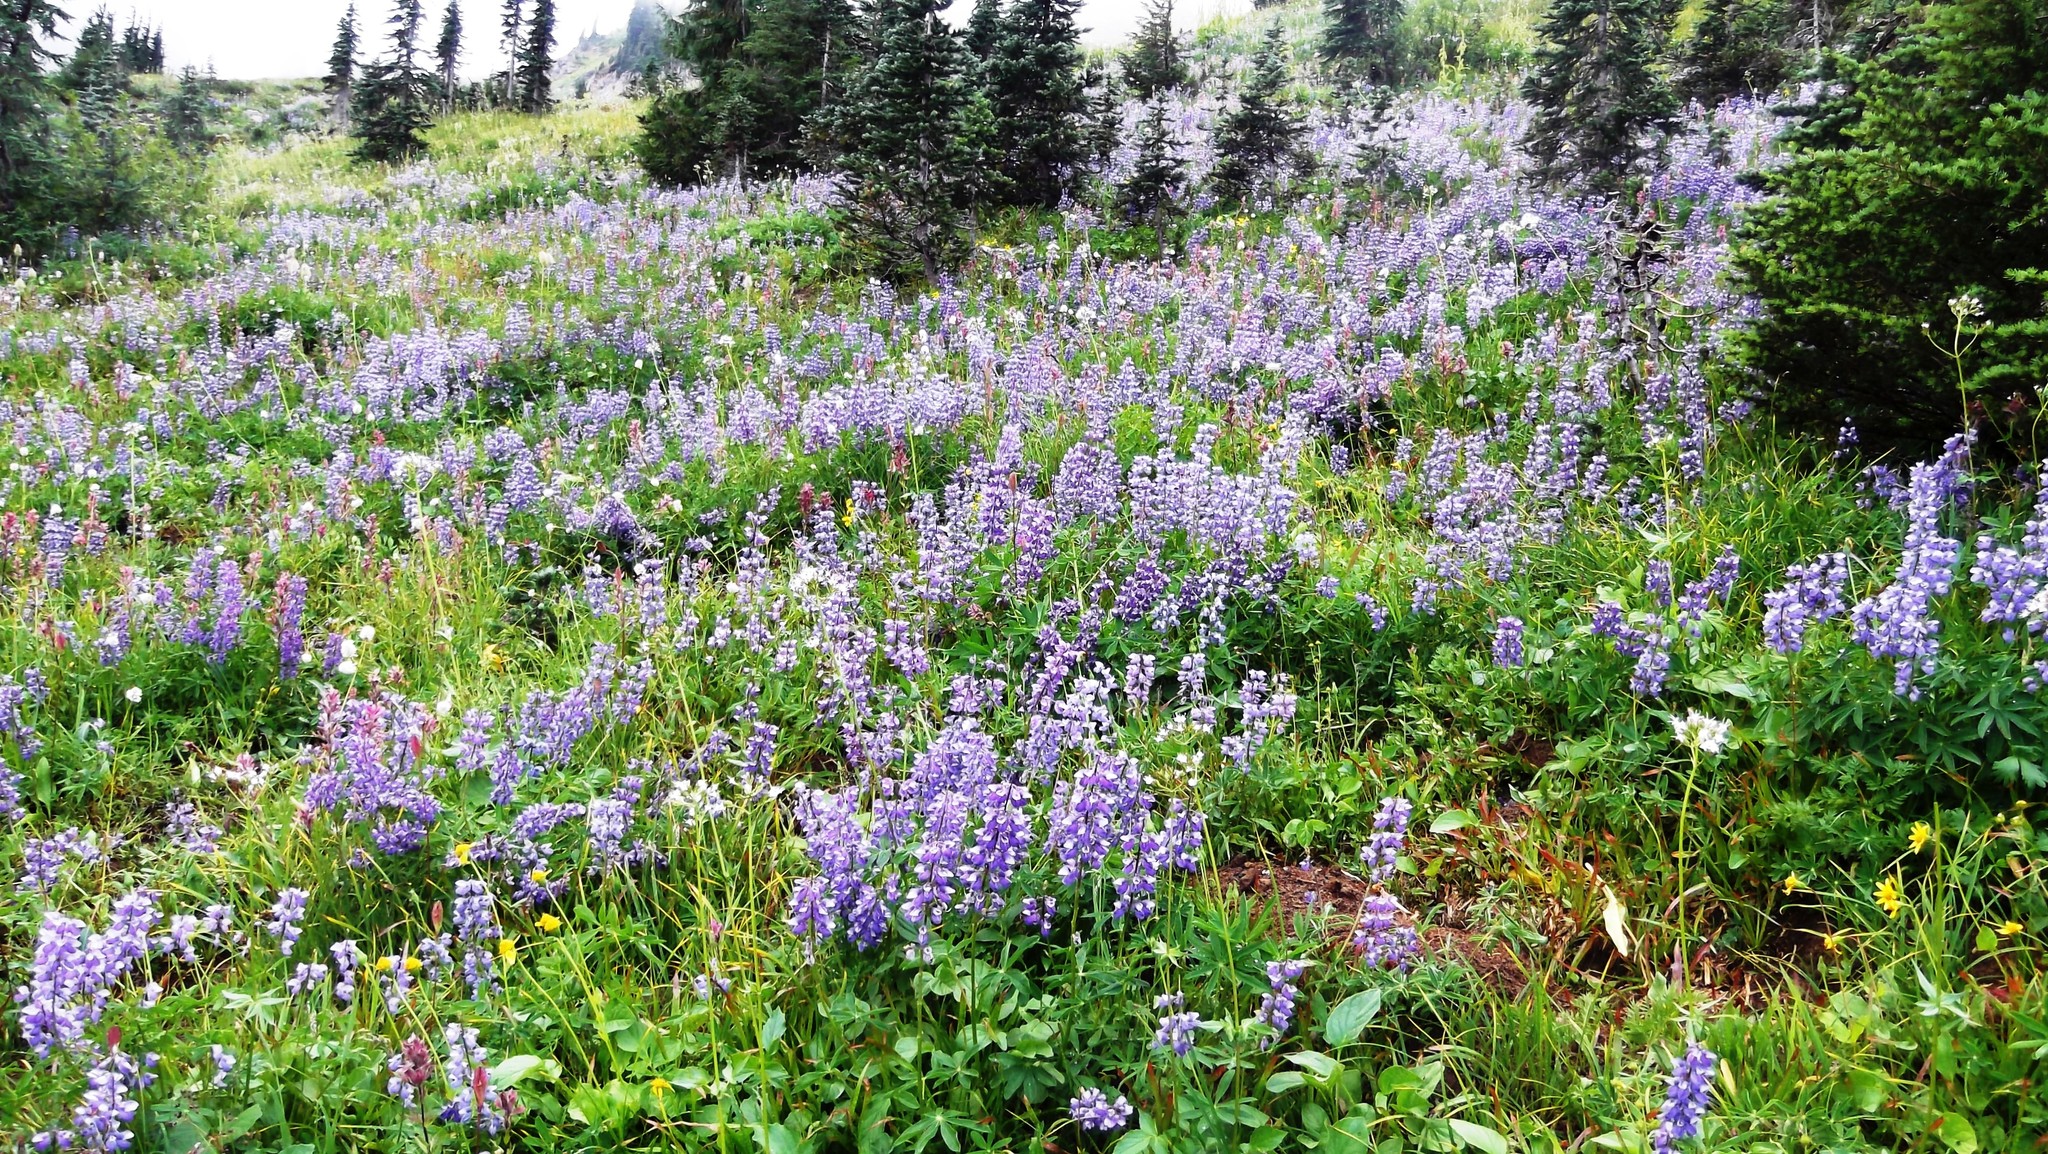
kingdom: Plantae
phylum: Tracheophyta
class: Magnoliopsida
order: Fabales
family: Fabaceae
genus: Lupinus
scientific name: Lupinus latifolius
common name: Broad-leaved lupine
